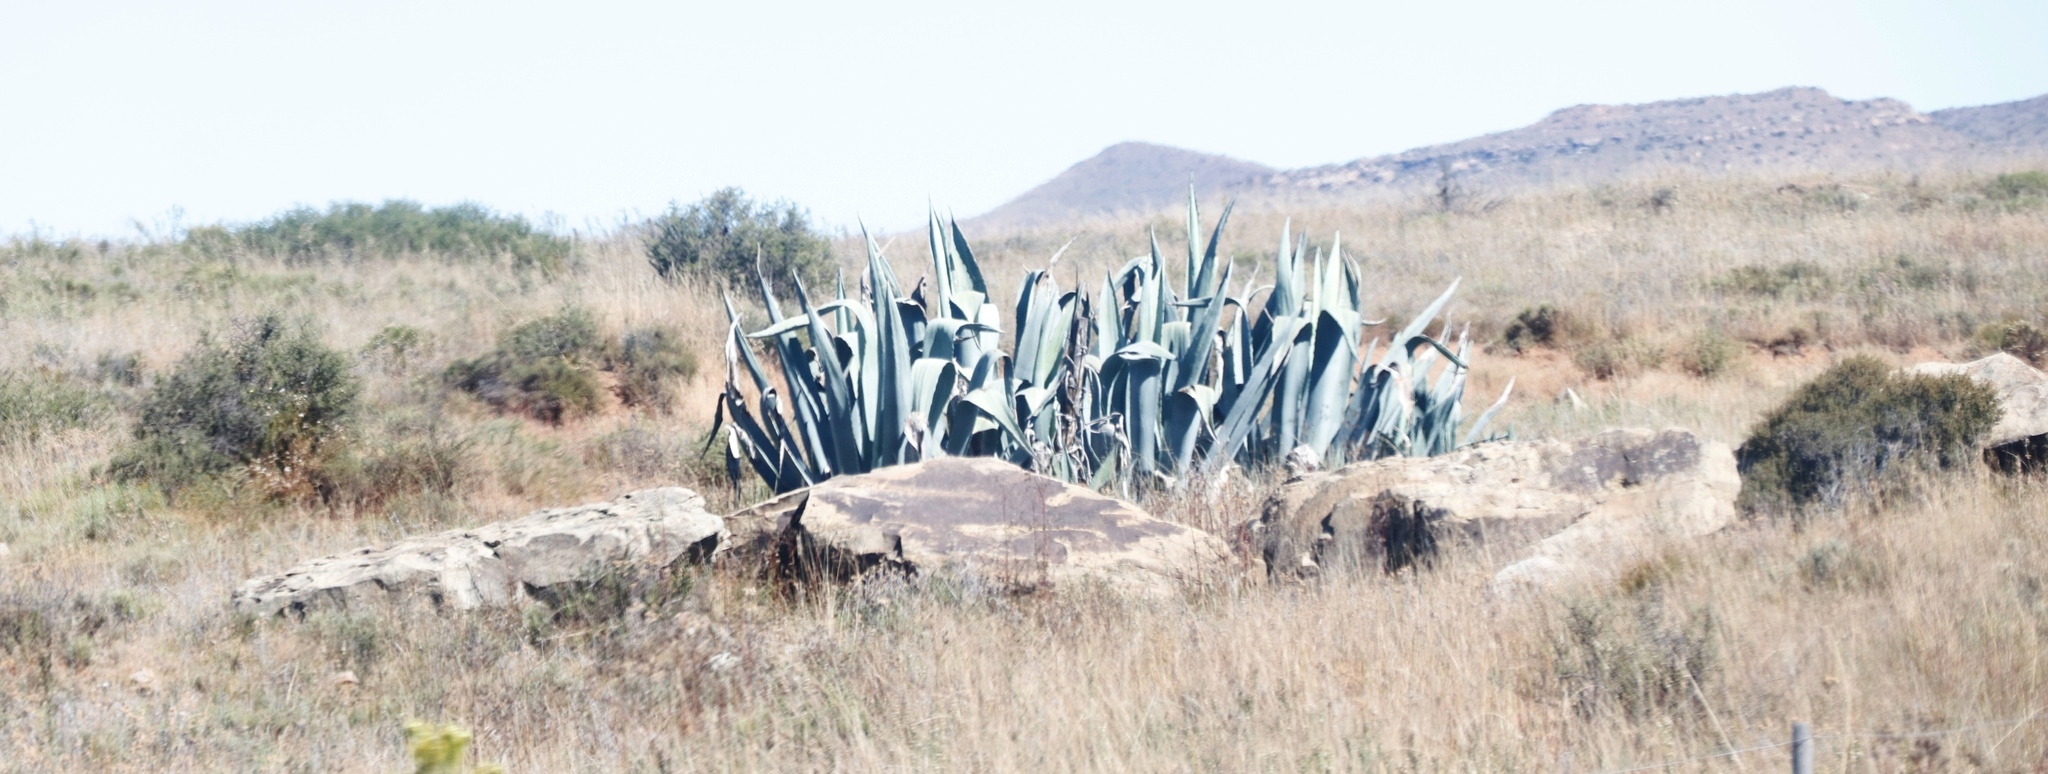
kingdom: Plantae
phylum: Tracheophyta
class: Liliopsida
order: Asparagales
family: Asparagaceae
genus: Agave
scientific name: Agave americana
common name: Centuryplant
